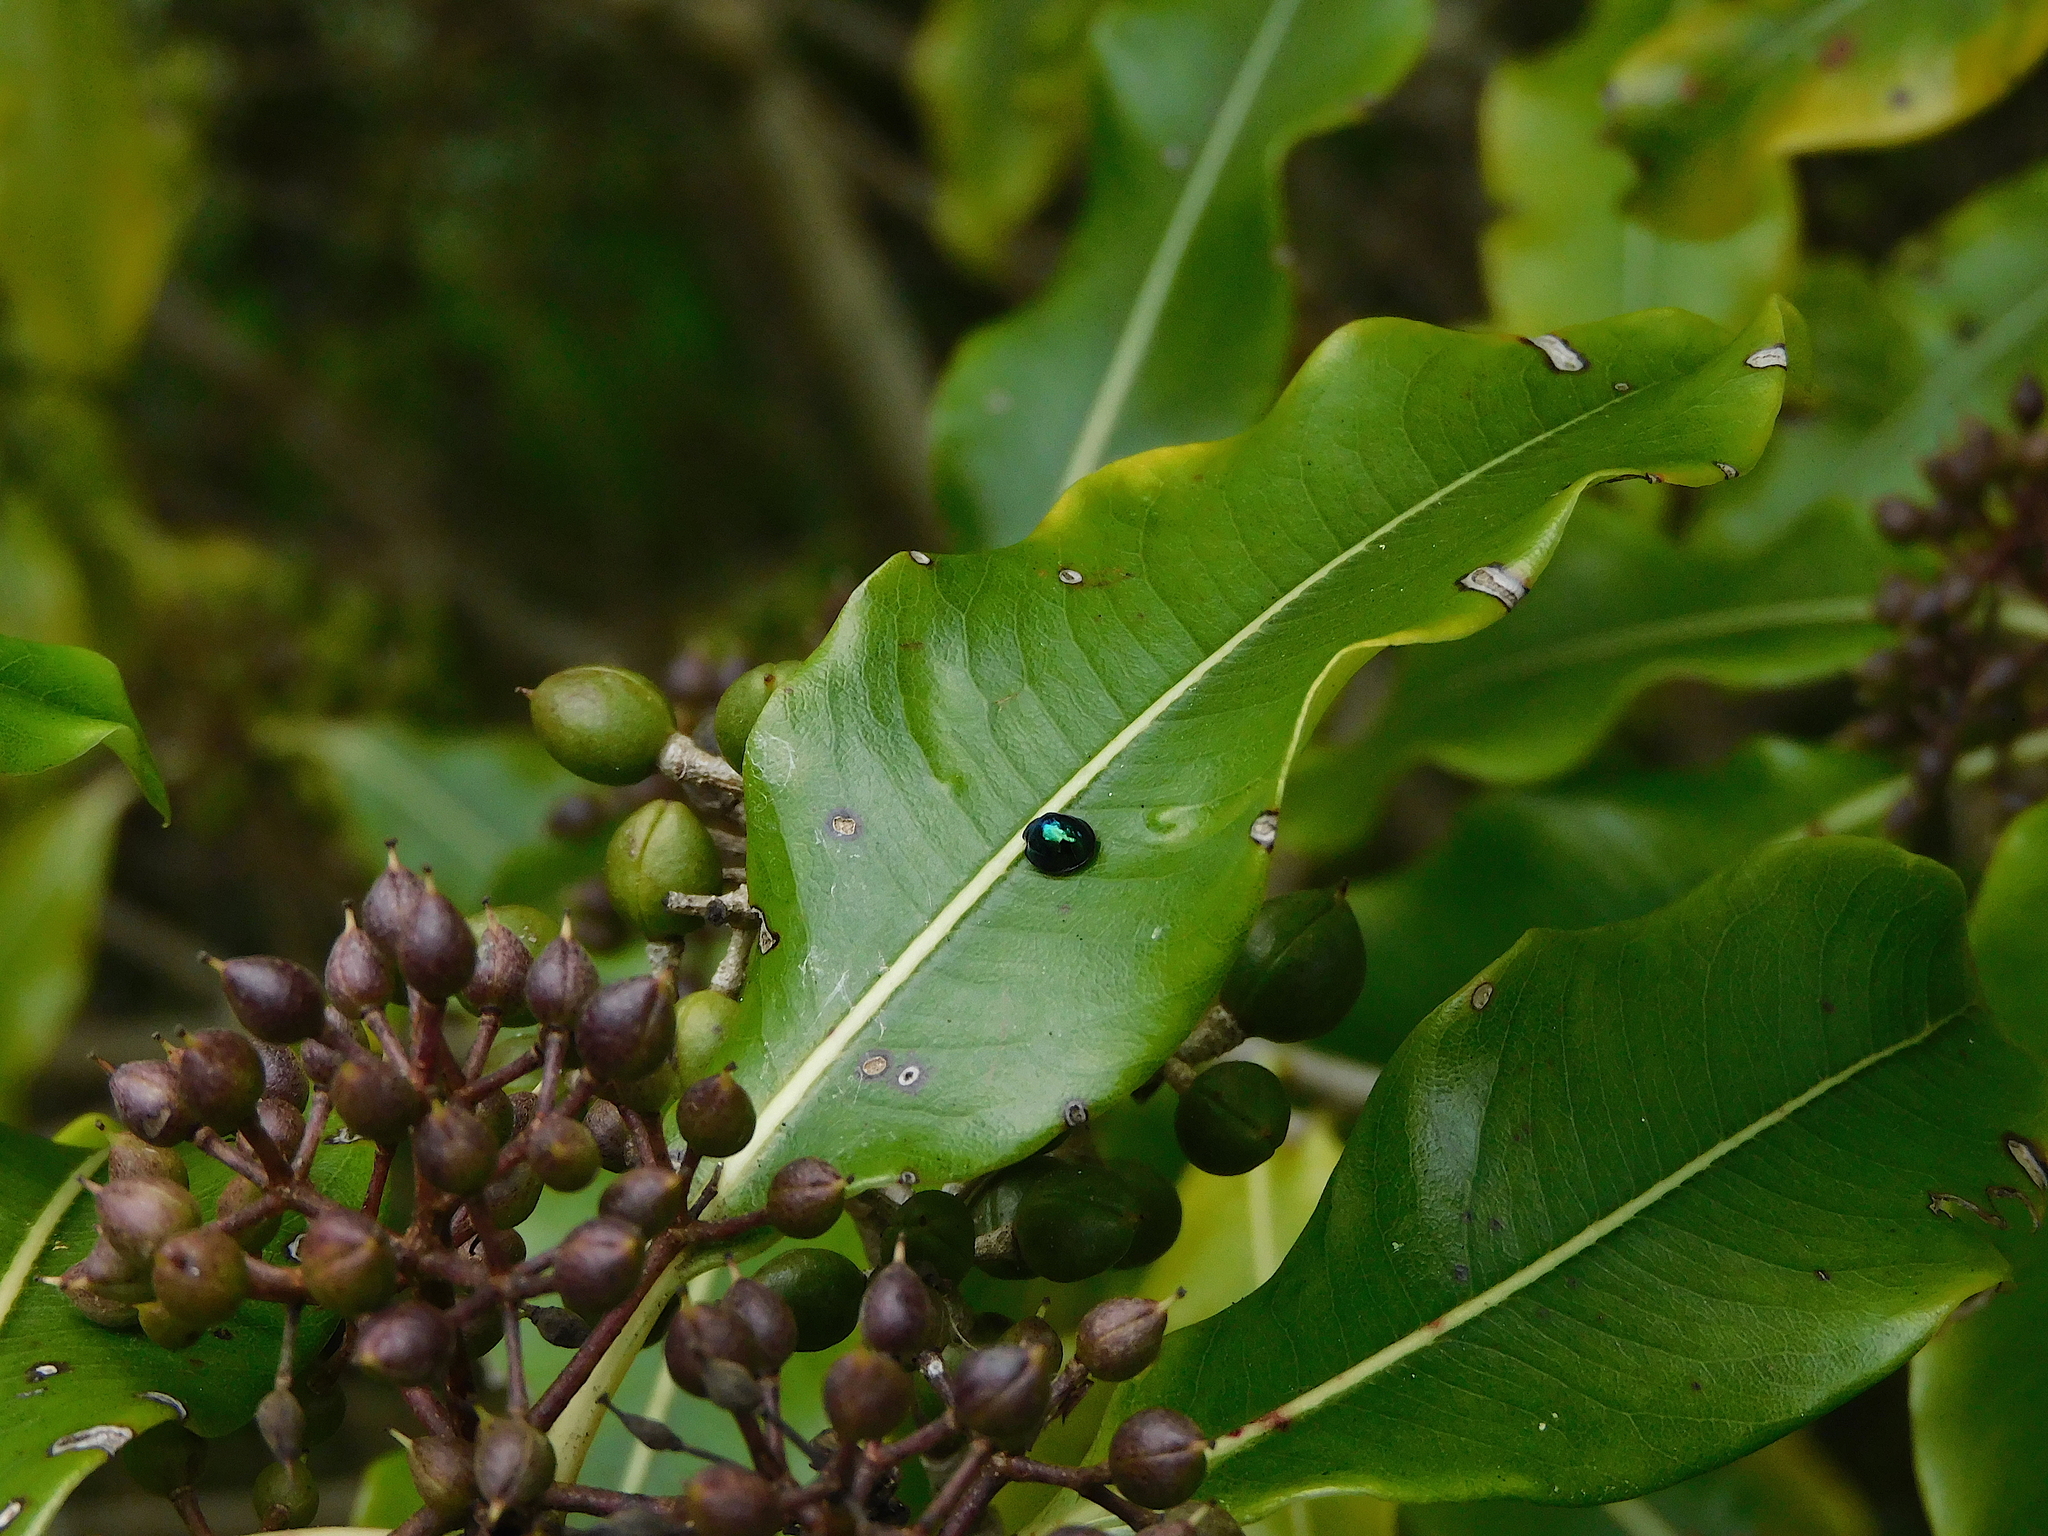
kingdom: Animalia
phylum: Arthropoda
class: Insecta
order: Coleoptera
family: Coccinellidae
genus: Halmus
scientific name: Halmus chalybeus
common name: Steel blue ladybird beetle
